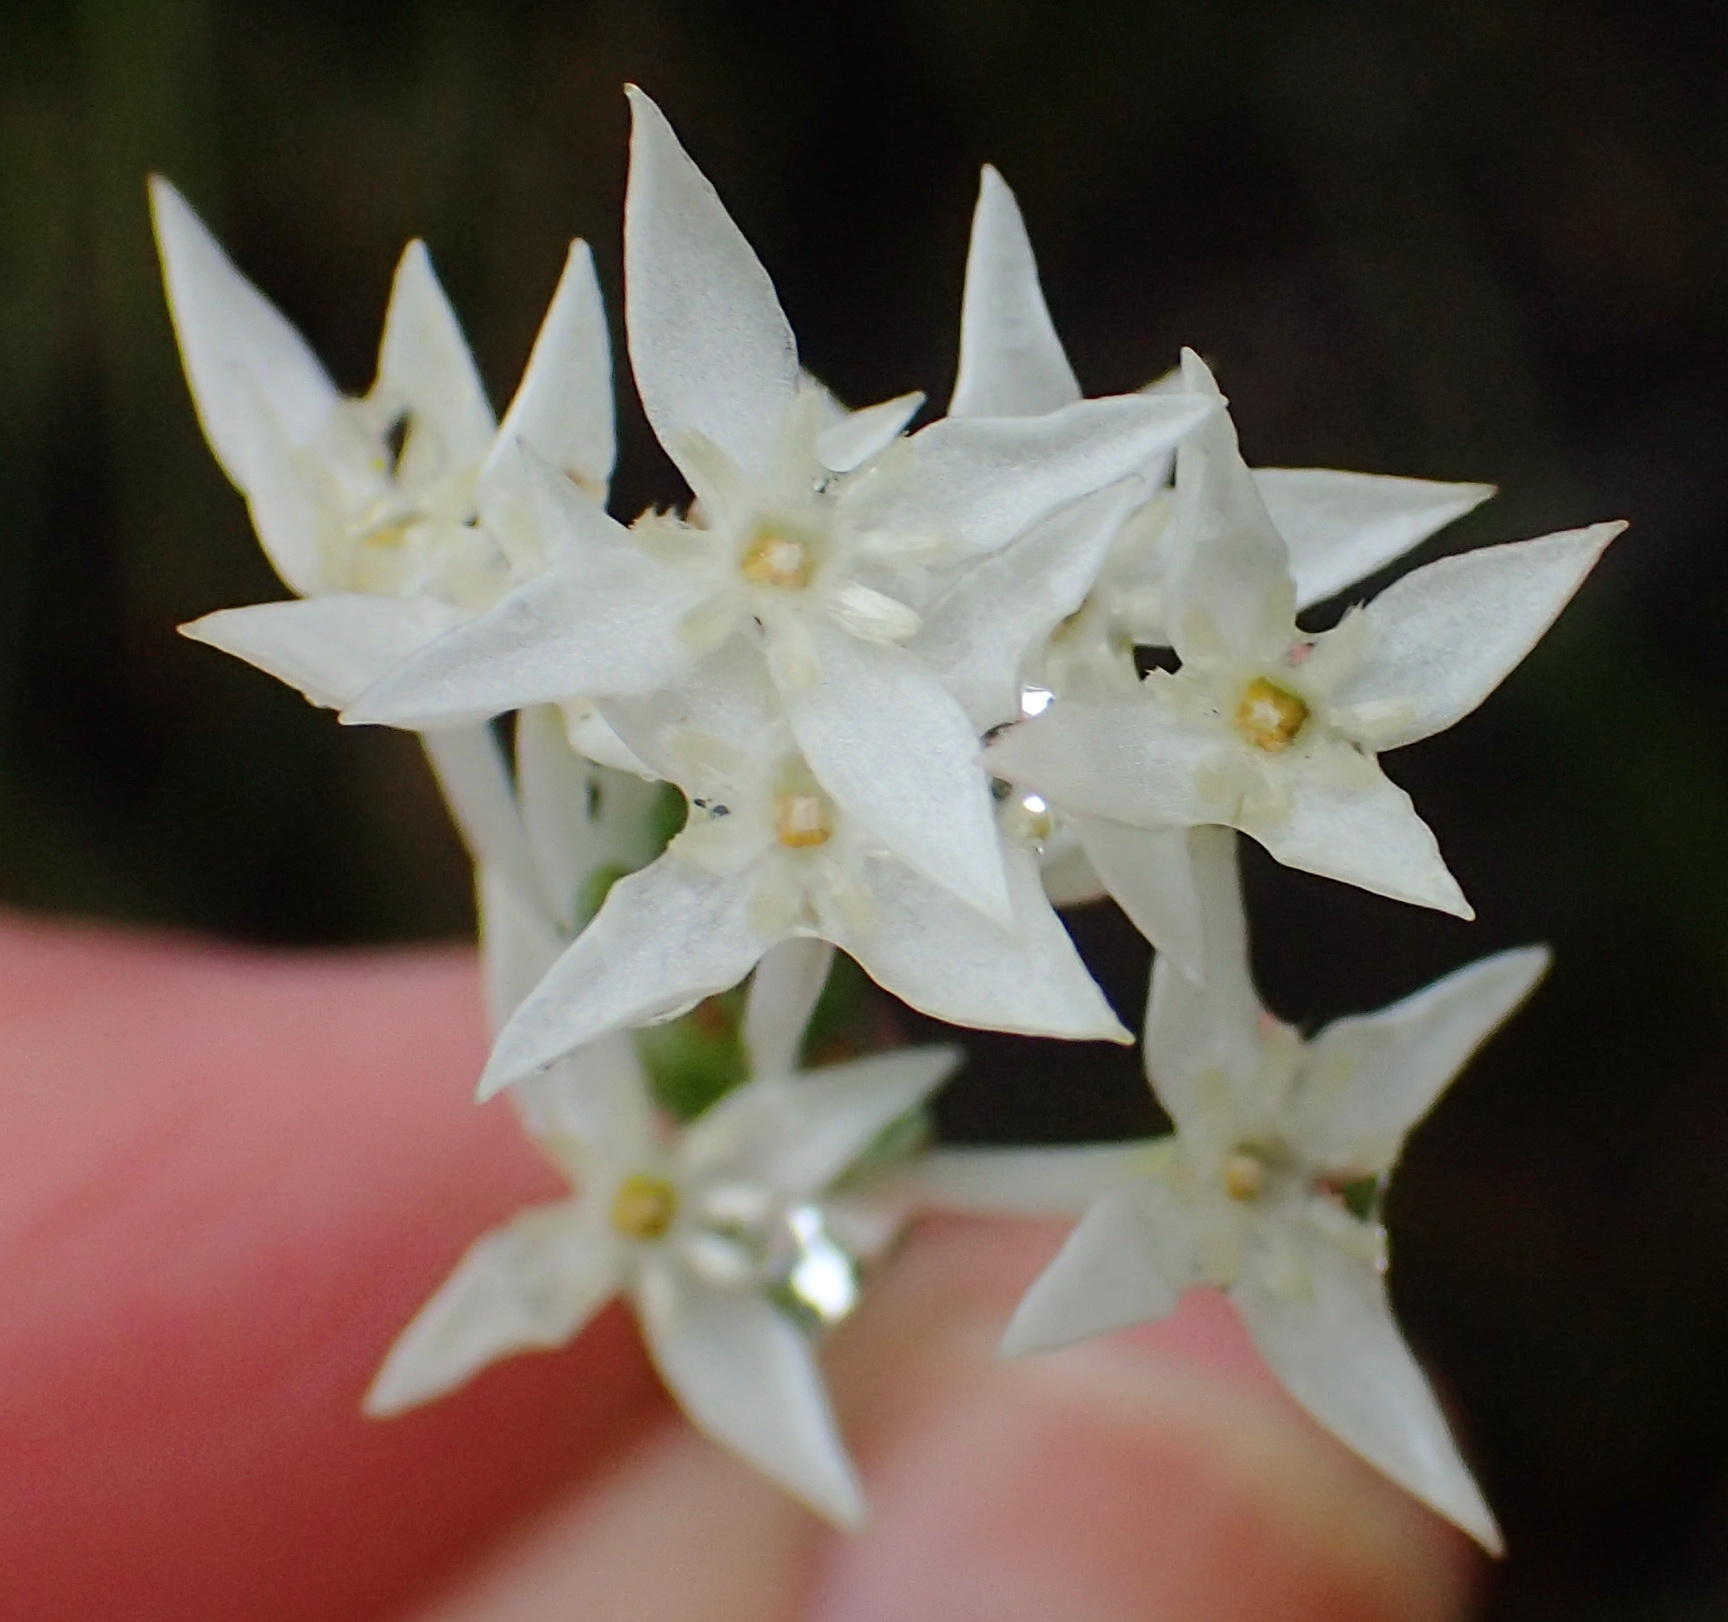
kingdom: Plantae
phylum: Tracheophyta
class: Magnoliopsida
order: Malvales
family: Thymelaeaceae
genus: Struthiola
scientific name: Struthiola myrsinites
